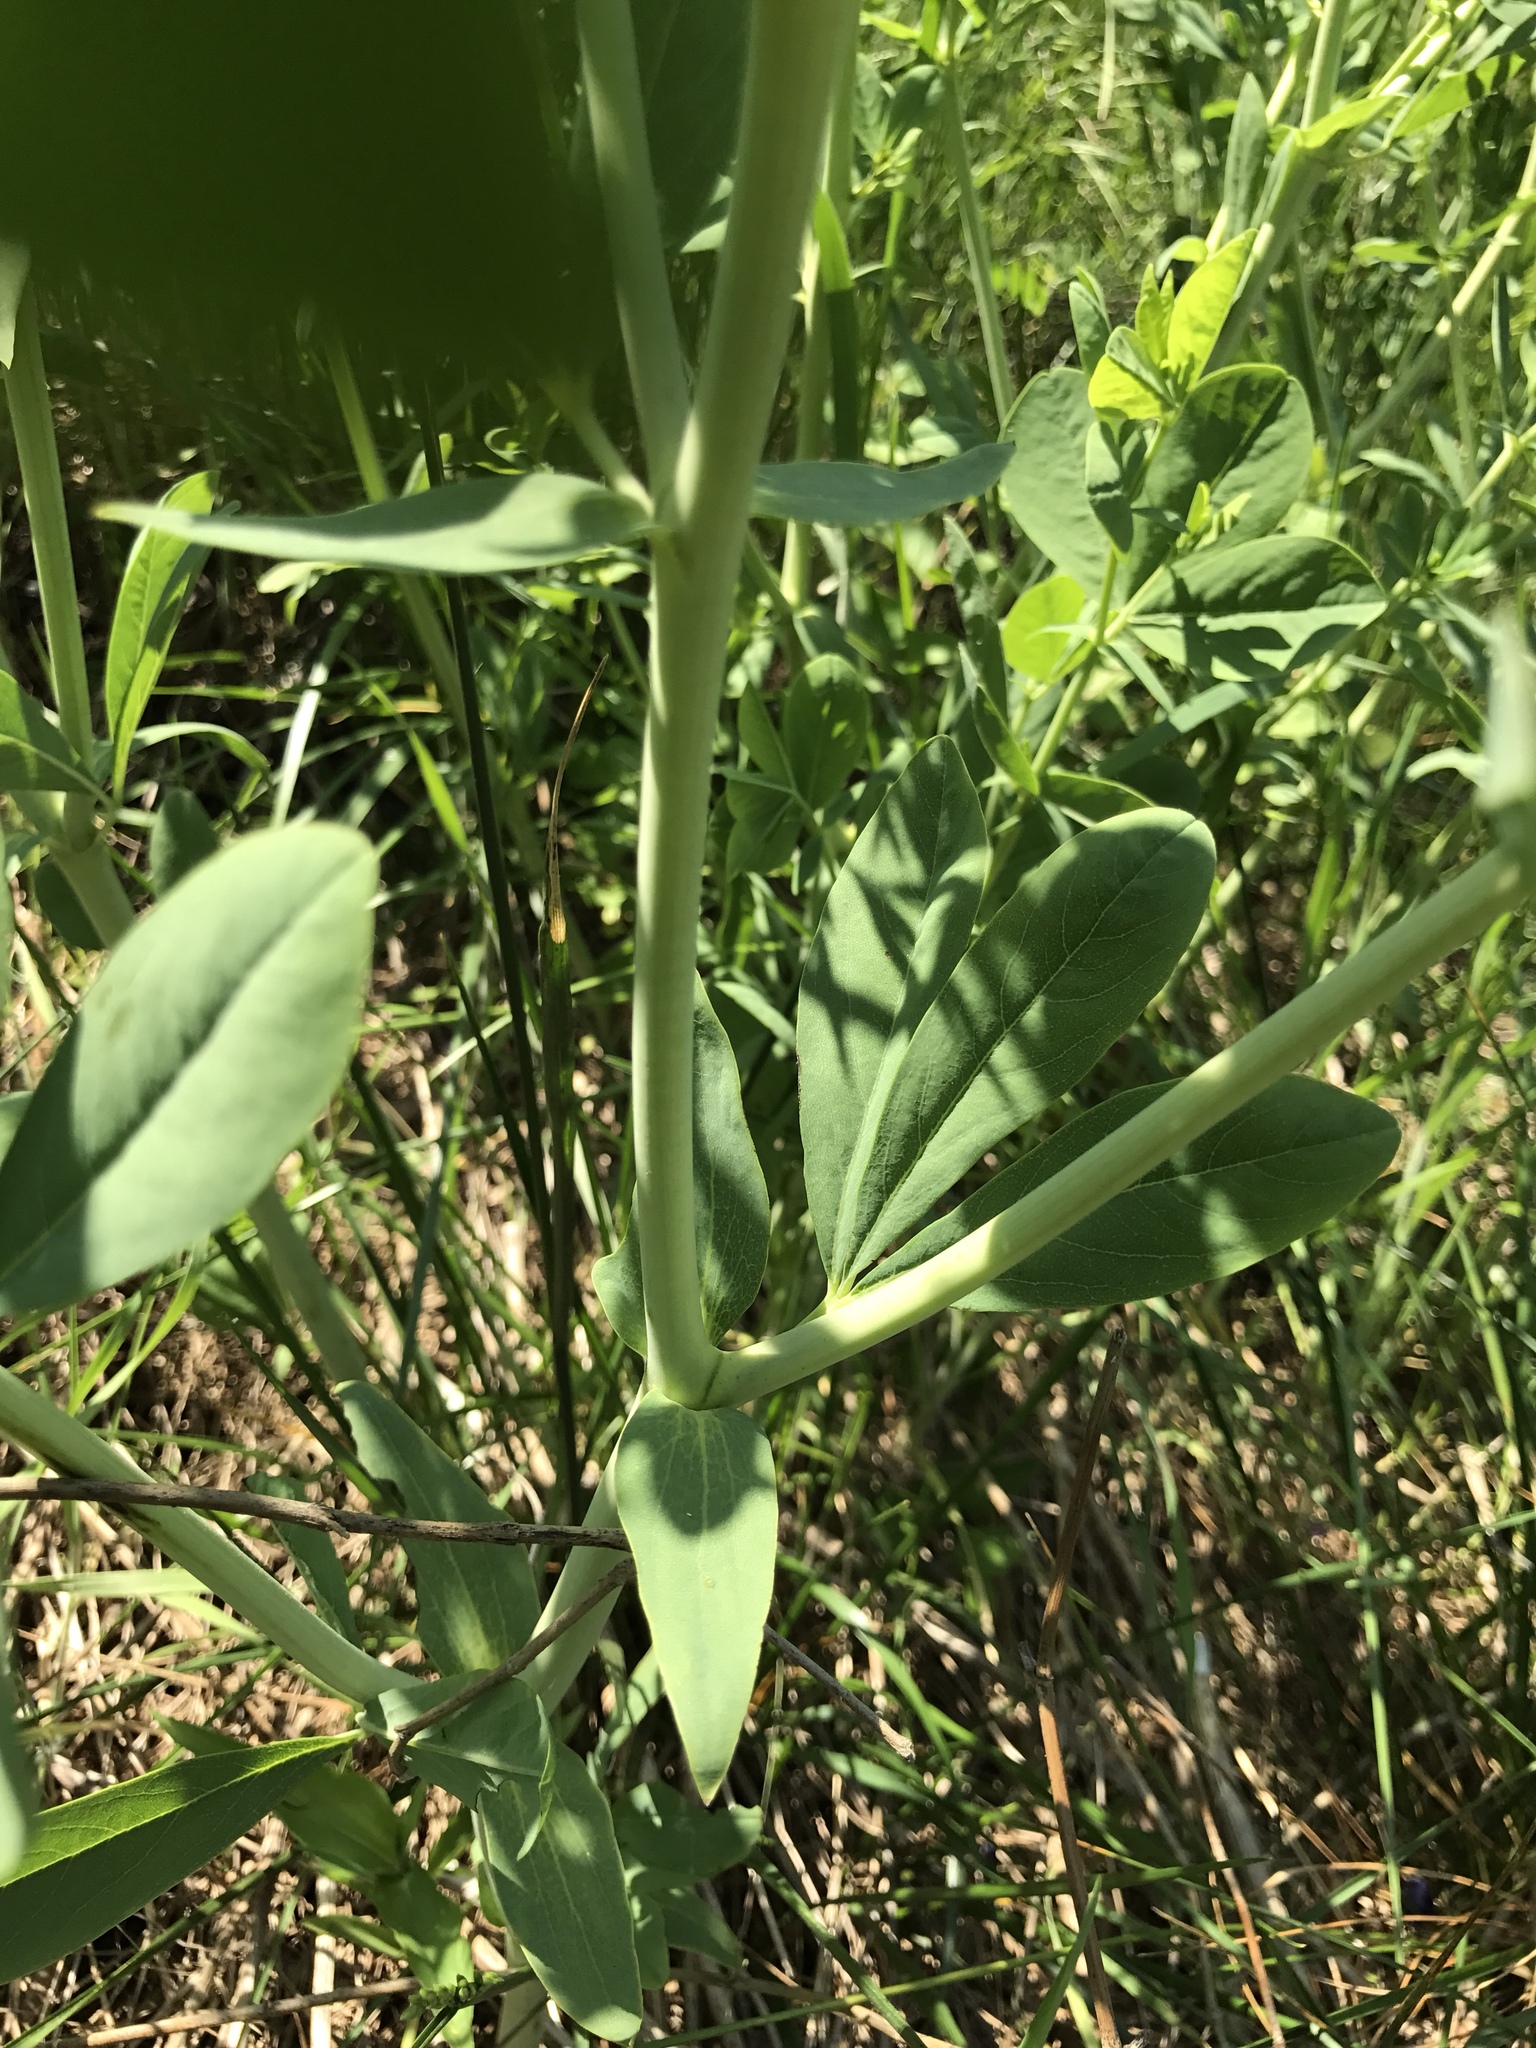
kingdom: Plantae
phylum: Tracheophyta
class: Magnoliopsida
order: Fabales
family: Fabaceae
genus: Baptisia
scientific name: Baptisia australis
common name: Blue false indigo
